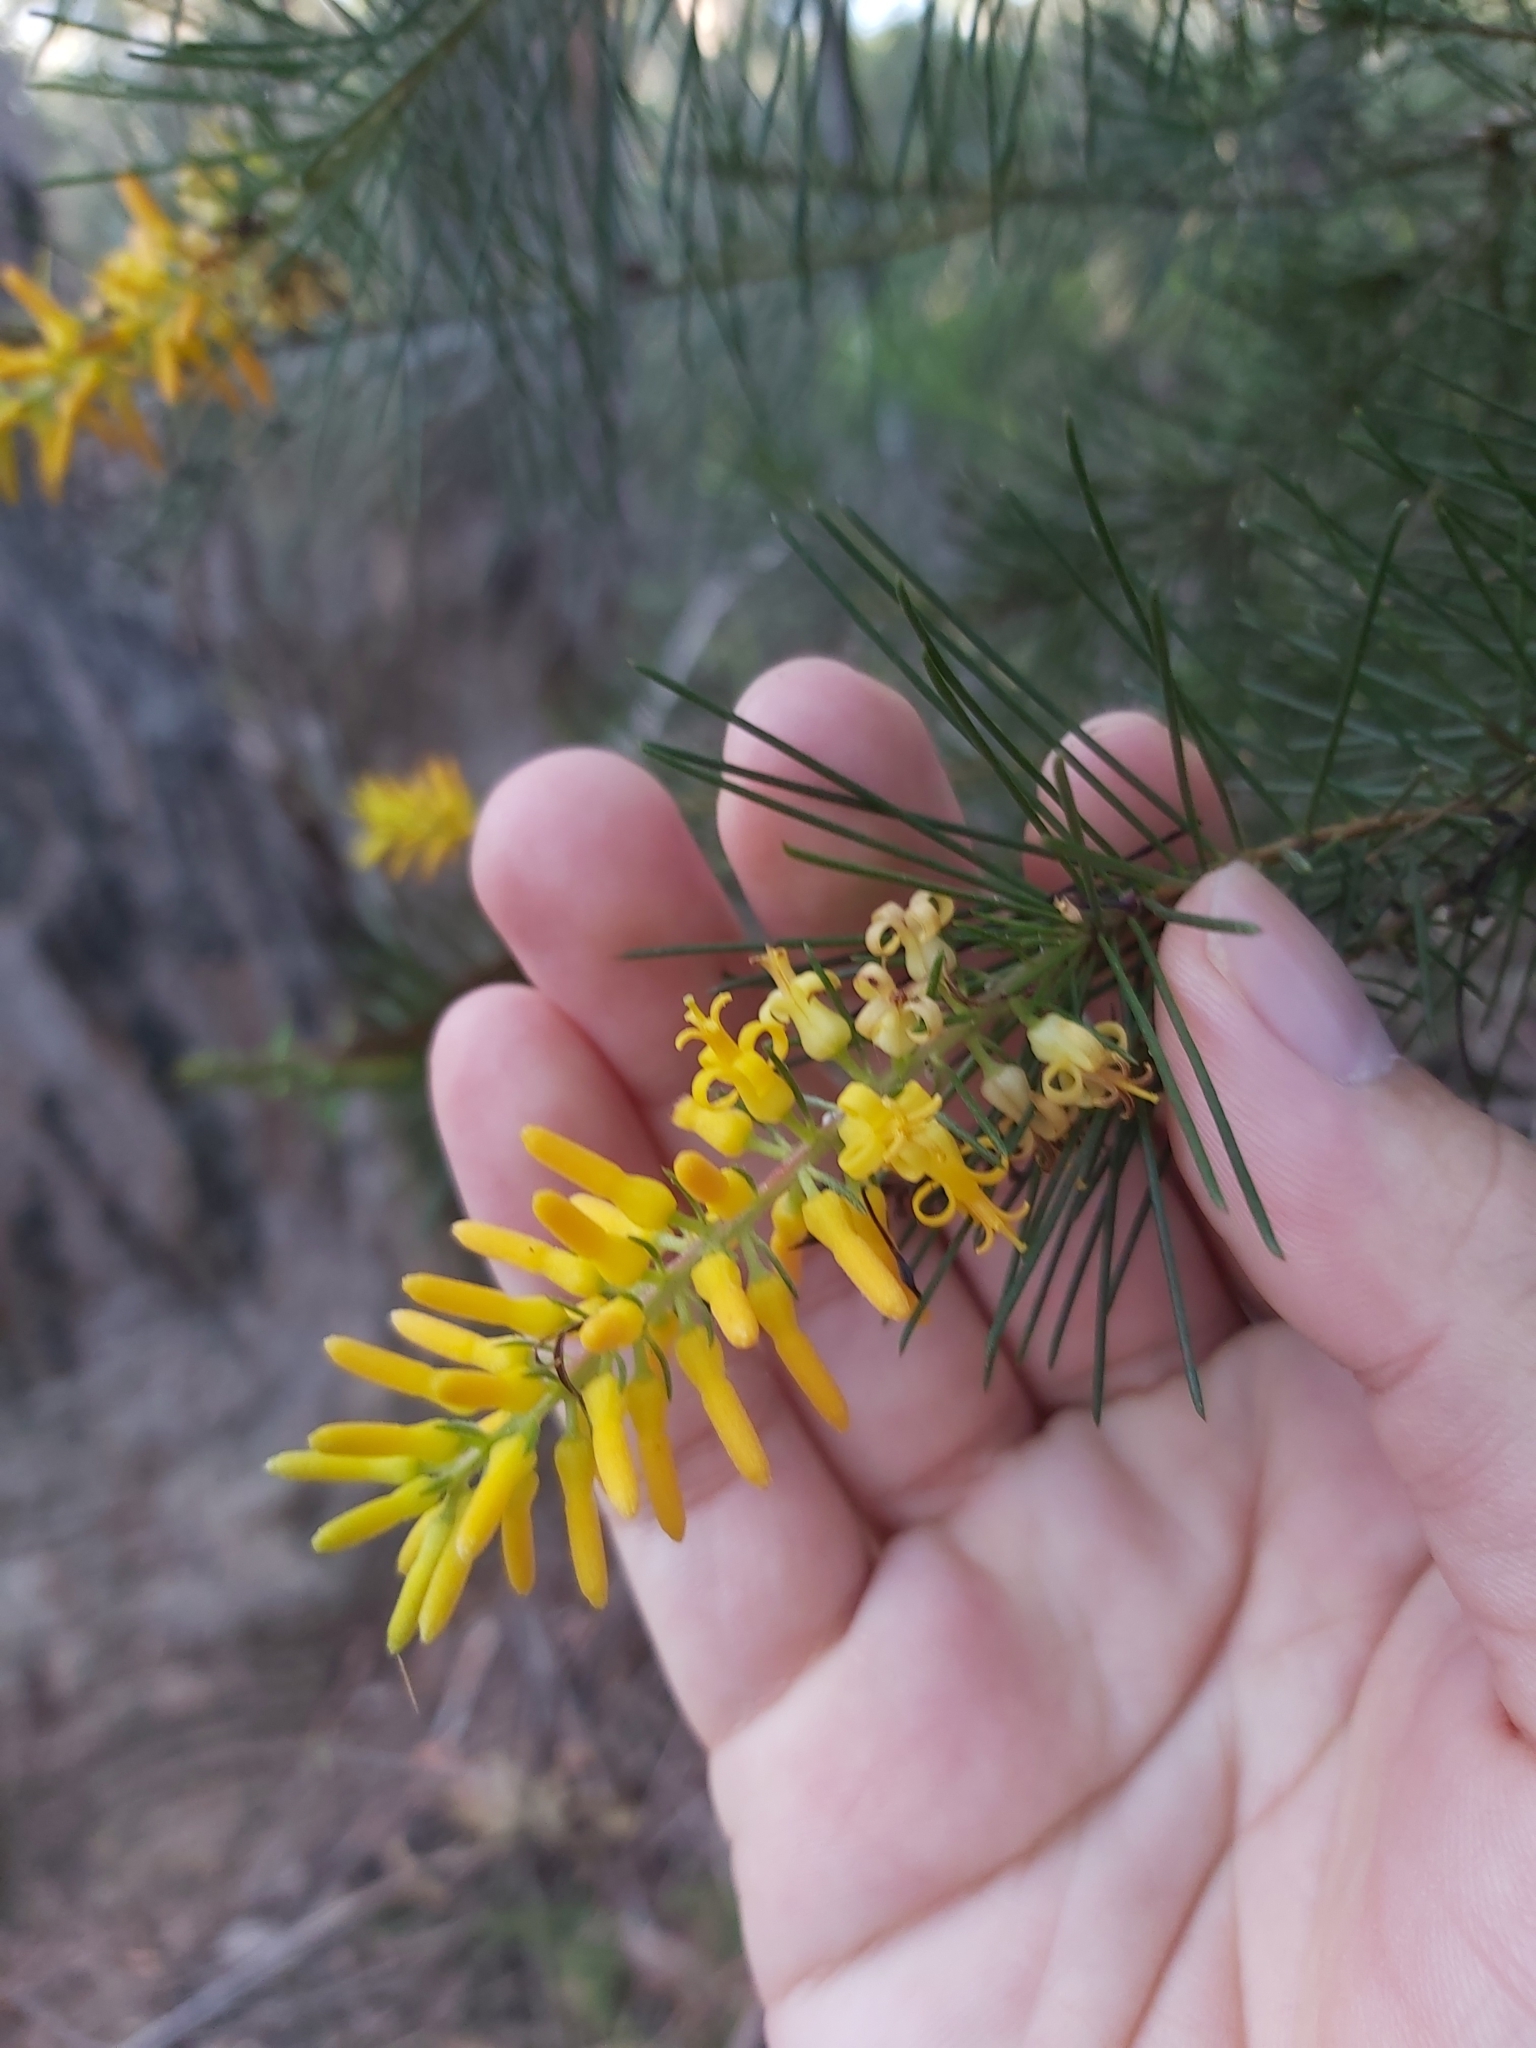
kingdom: Plantae
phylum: Tracheophyta
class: Magnoliopsida
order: Proteales
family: Proteaceae
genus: Persoonia
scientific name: Persoonia pinifolia
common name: Pine-leaf geebung
